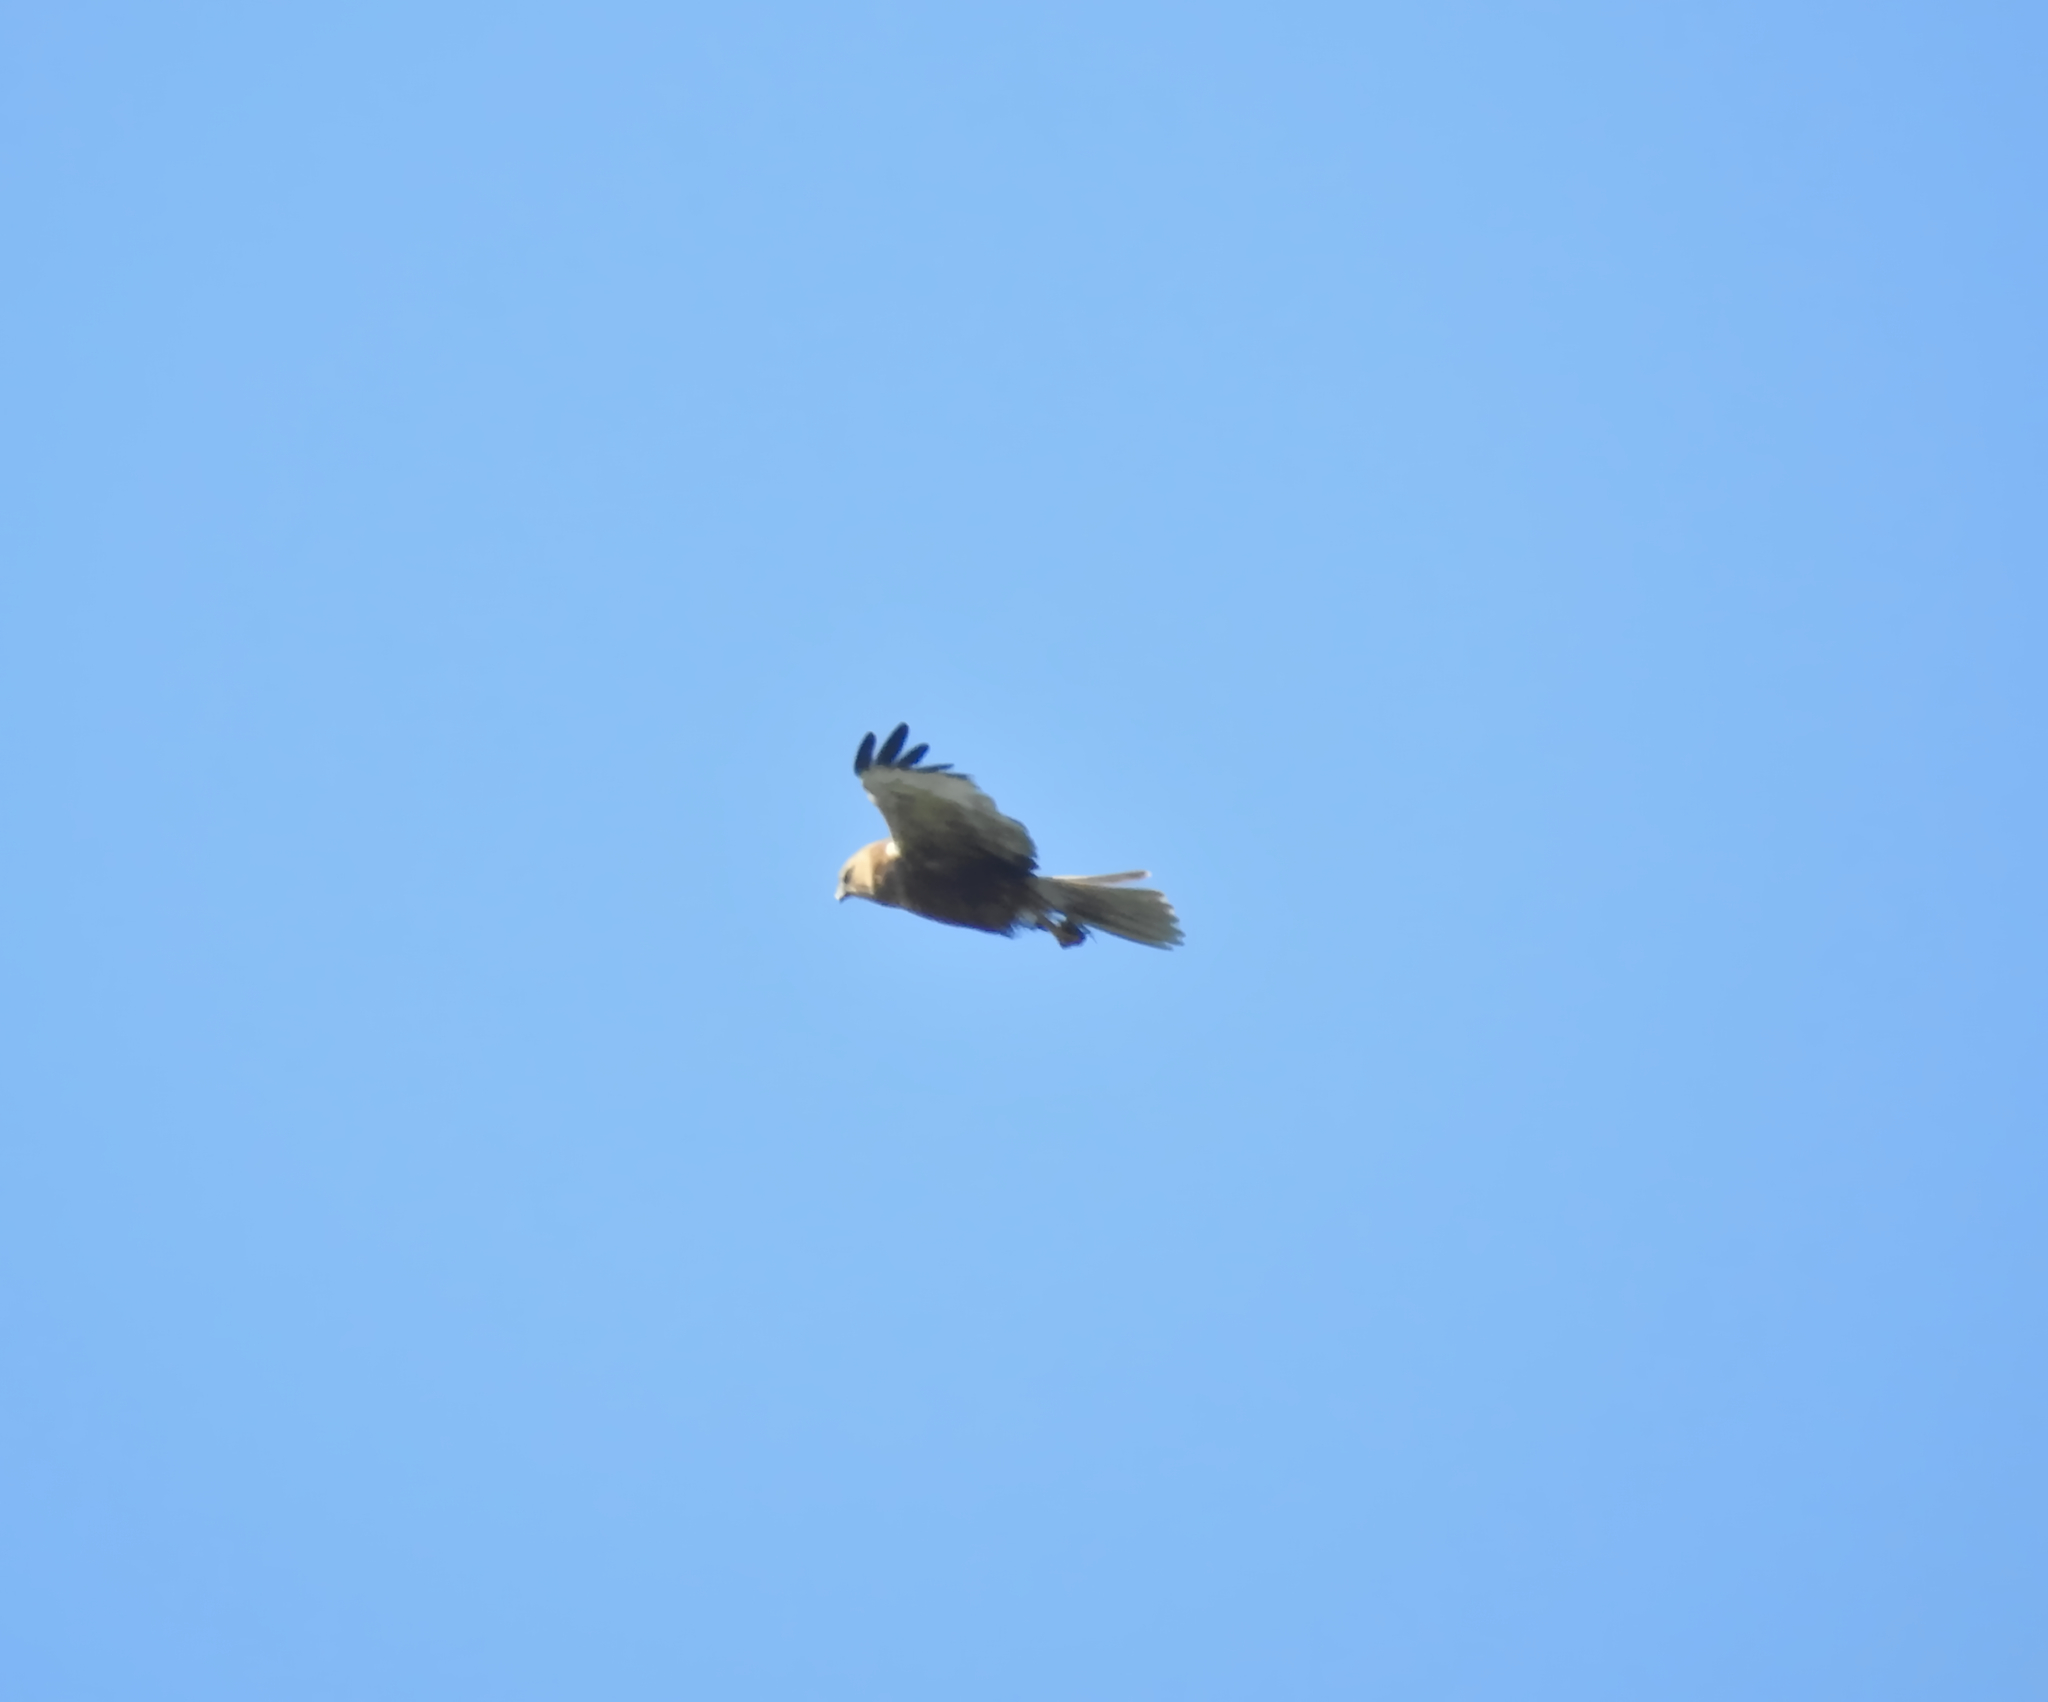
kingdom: Animalia
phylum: Chordata
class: Aves
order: Accipitriformes
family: Accipitridae
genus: Circus
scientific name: Circus aeruginosus
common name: Western marsh harrier
